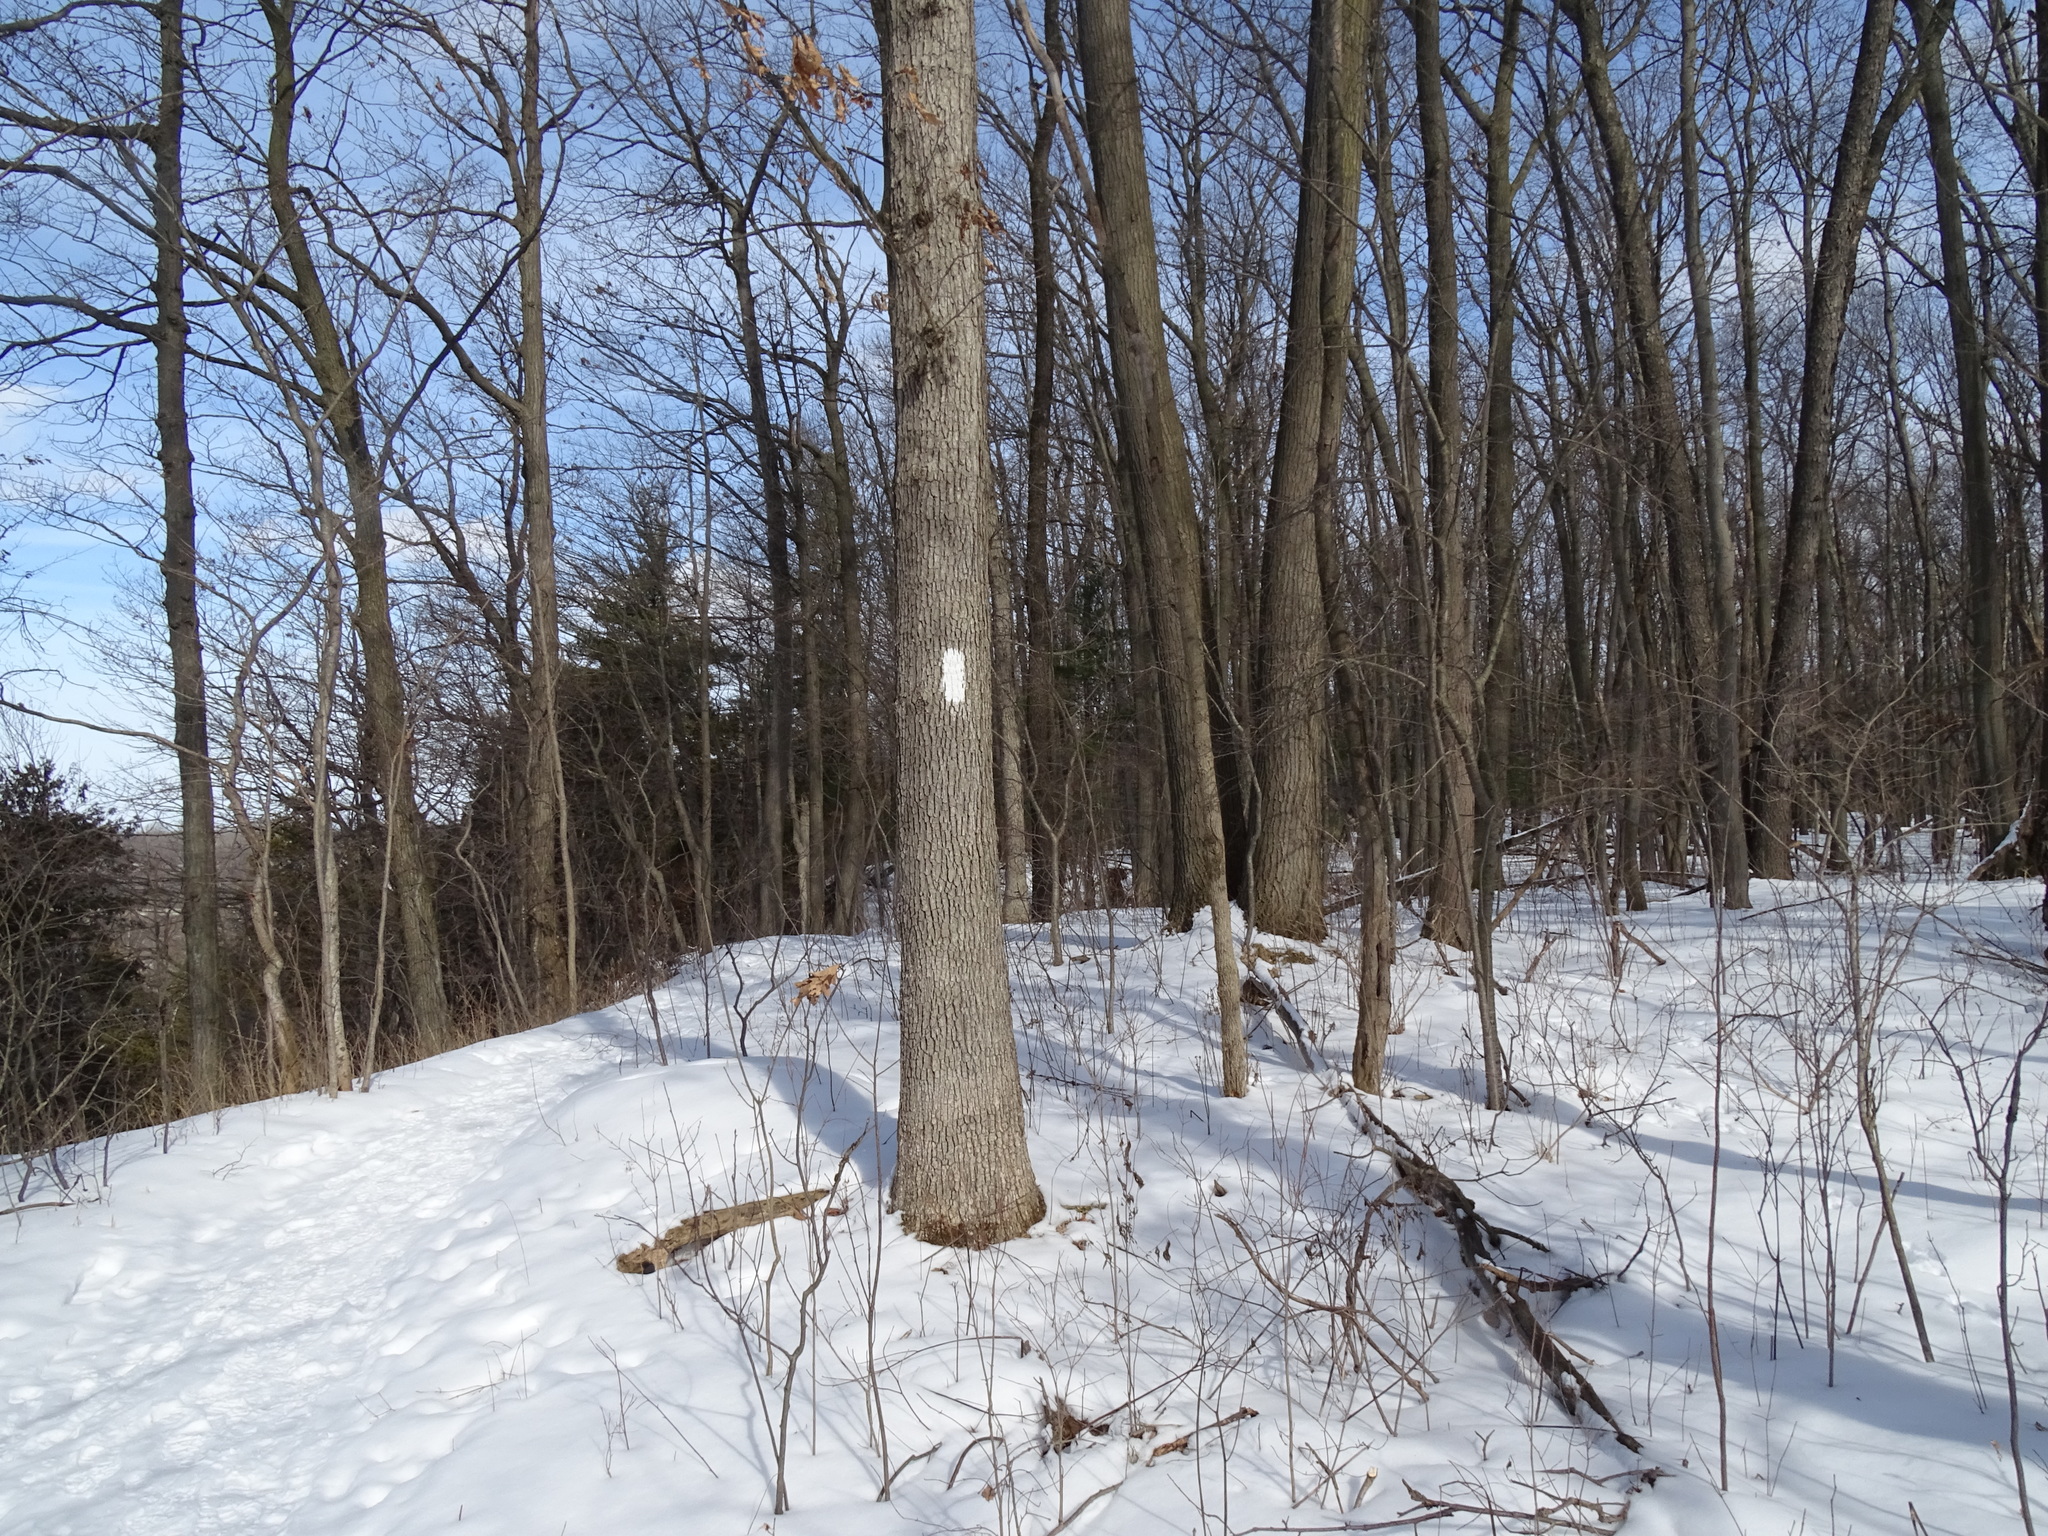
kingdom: Plantae
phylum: Tracheophyta
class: Magnoliopsida
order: Fagales
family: Fagaceae
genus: Quercus
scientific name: Quercus alba
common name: White oak
